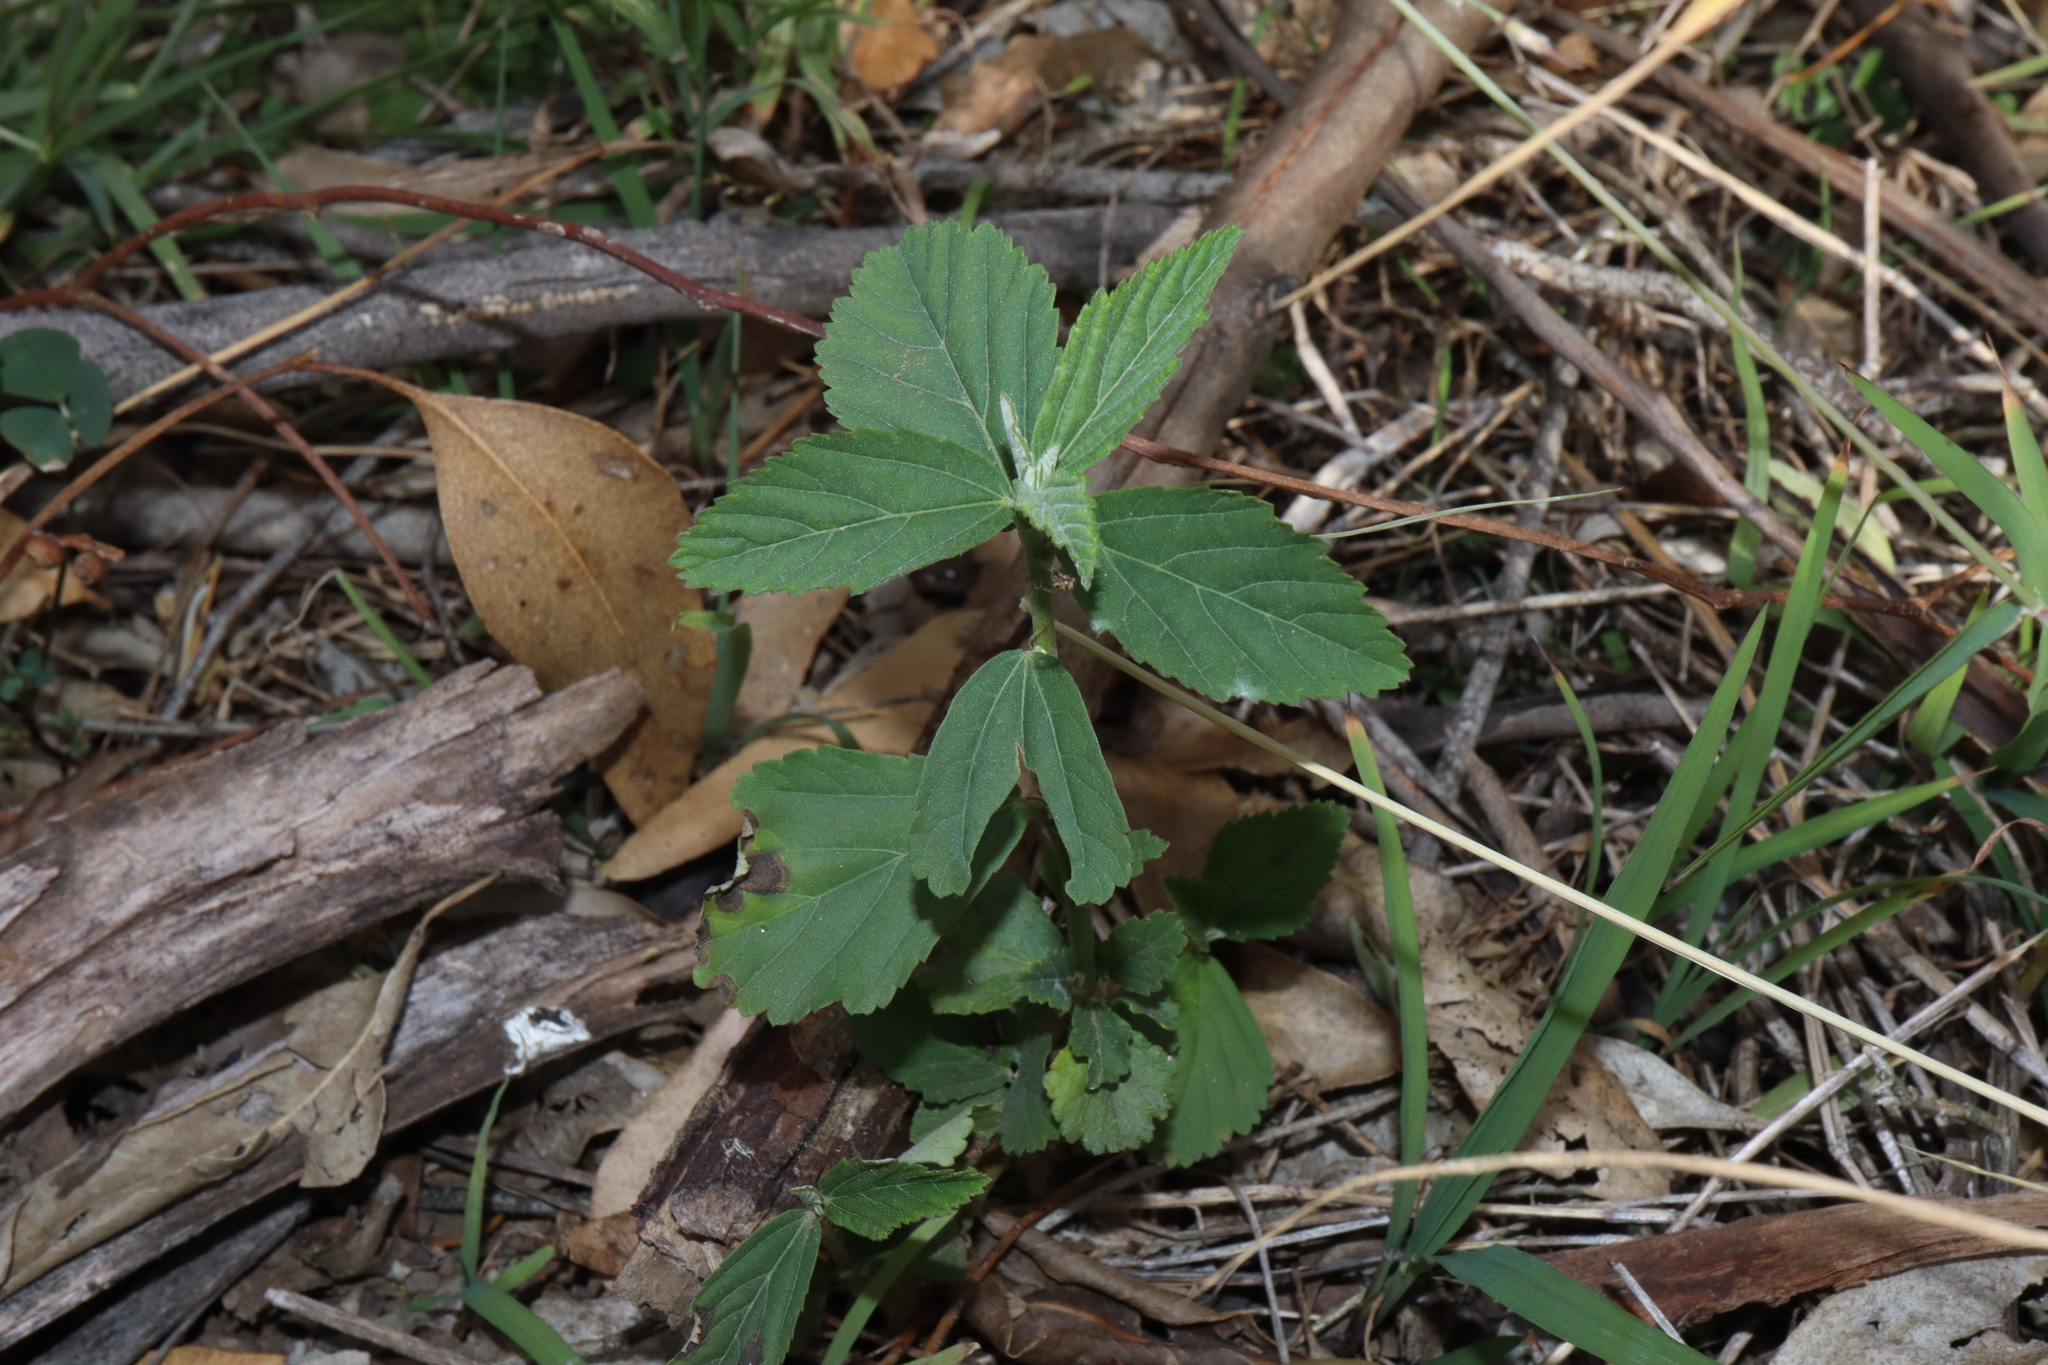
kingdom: Plantae
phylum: Tracheophyta
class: Magnoliopsida
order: Malvales
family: Malvaceae
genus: Sida
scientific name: Sida rhombifolia
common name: Queensland-hemp
